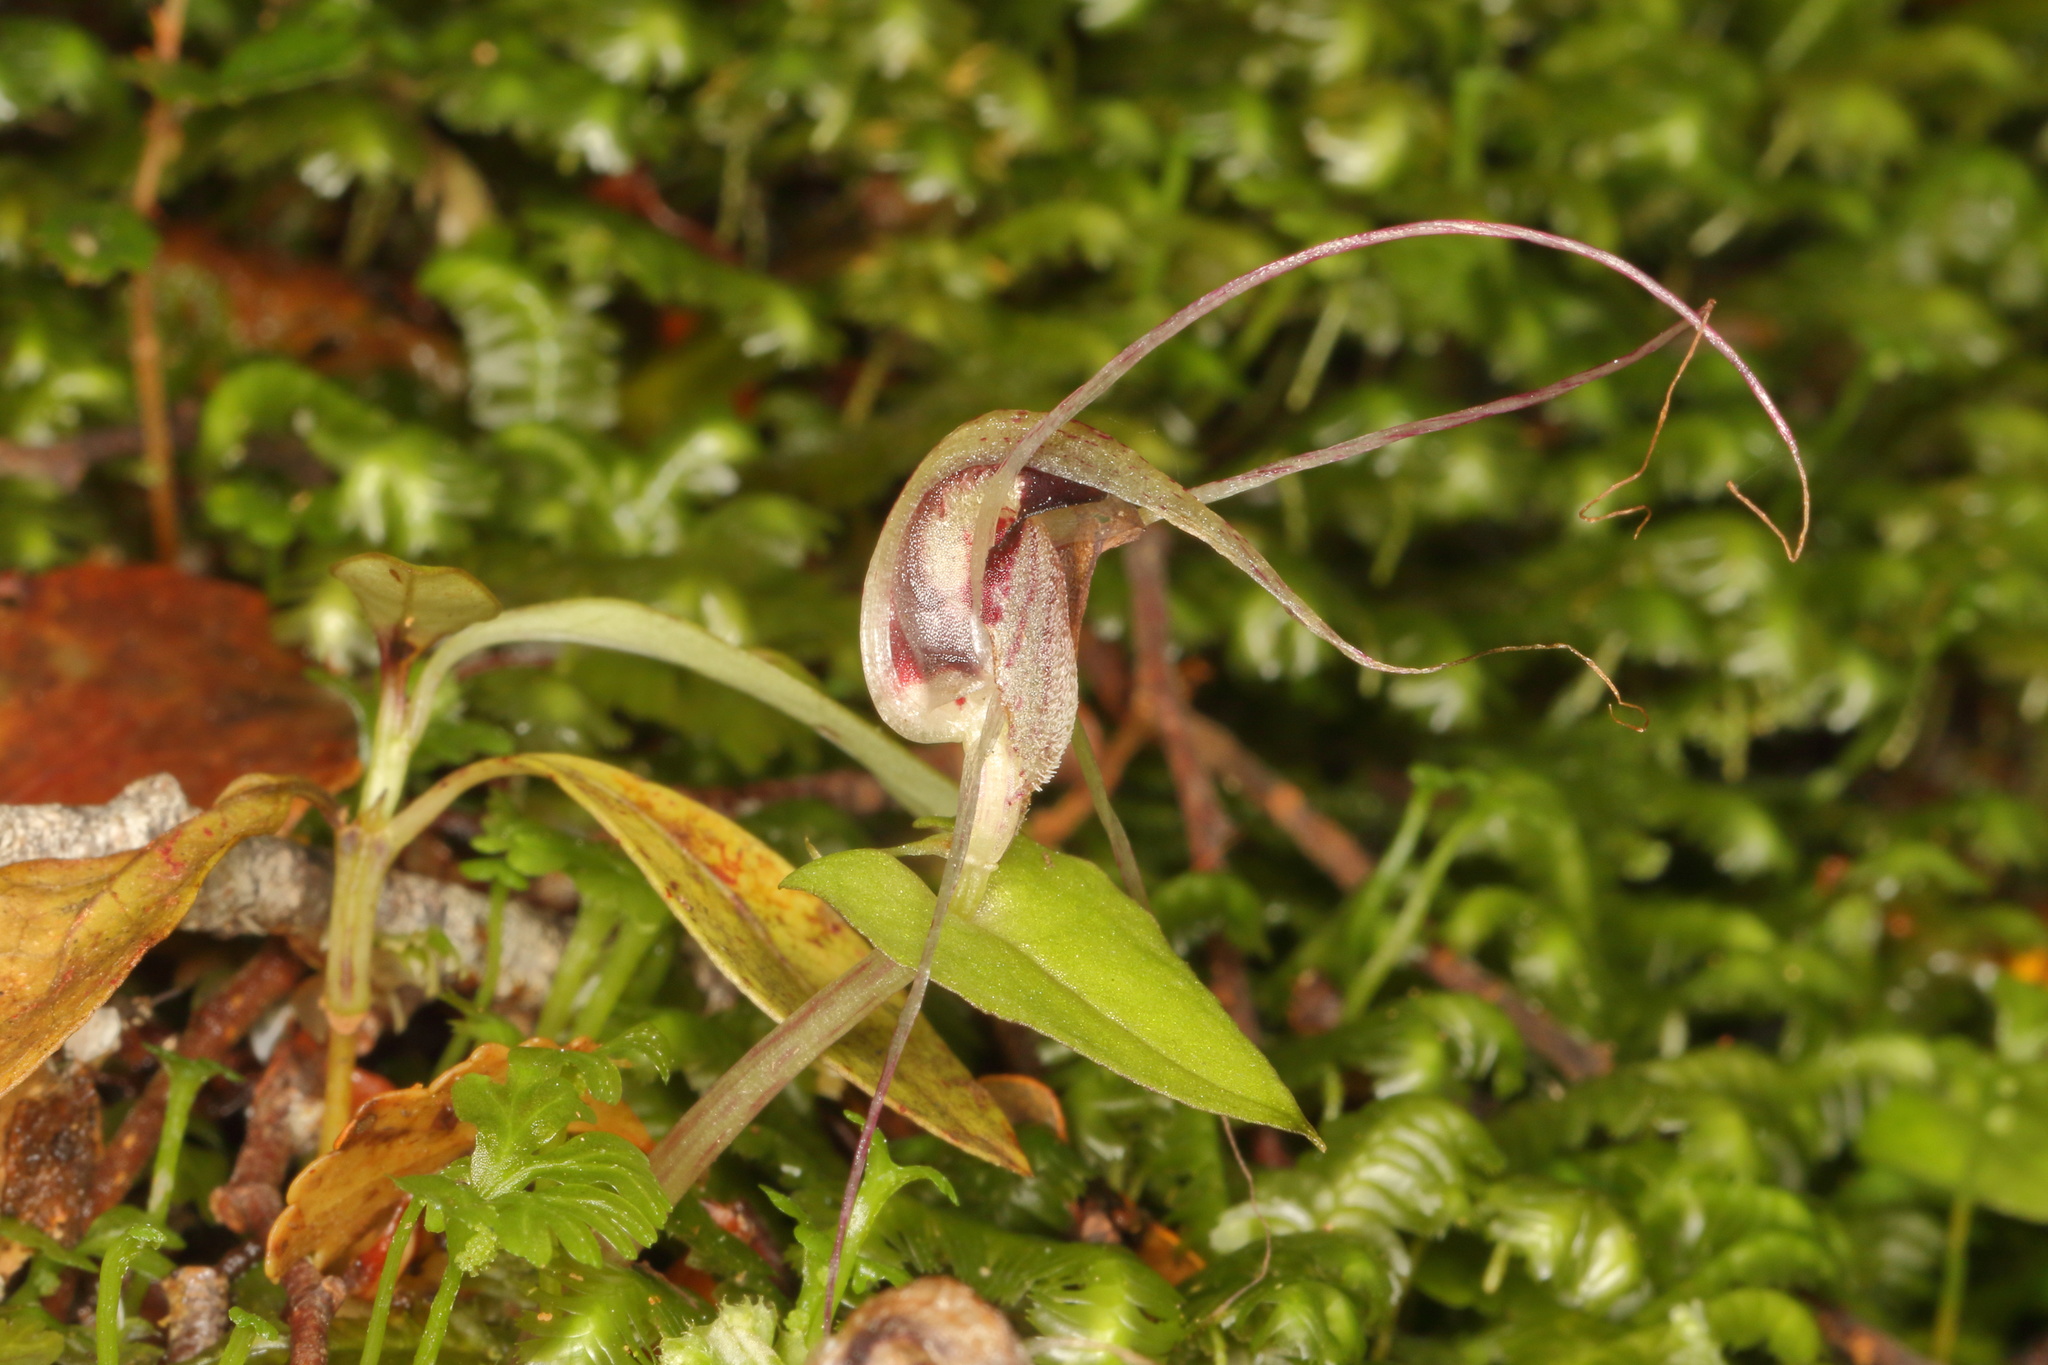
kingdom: Plantae
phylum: Tracheophyta
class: Liliopsida
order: Asparagales
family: Orchidaceae
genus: Corybas
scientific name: Corybas acuminatus
